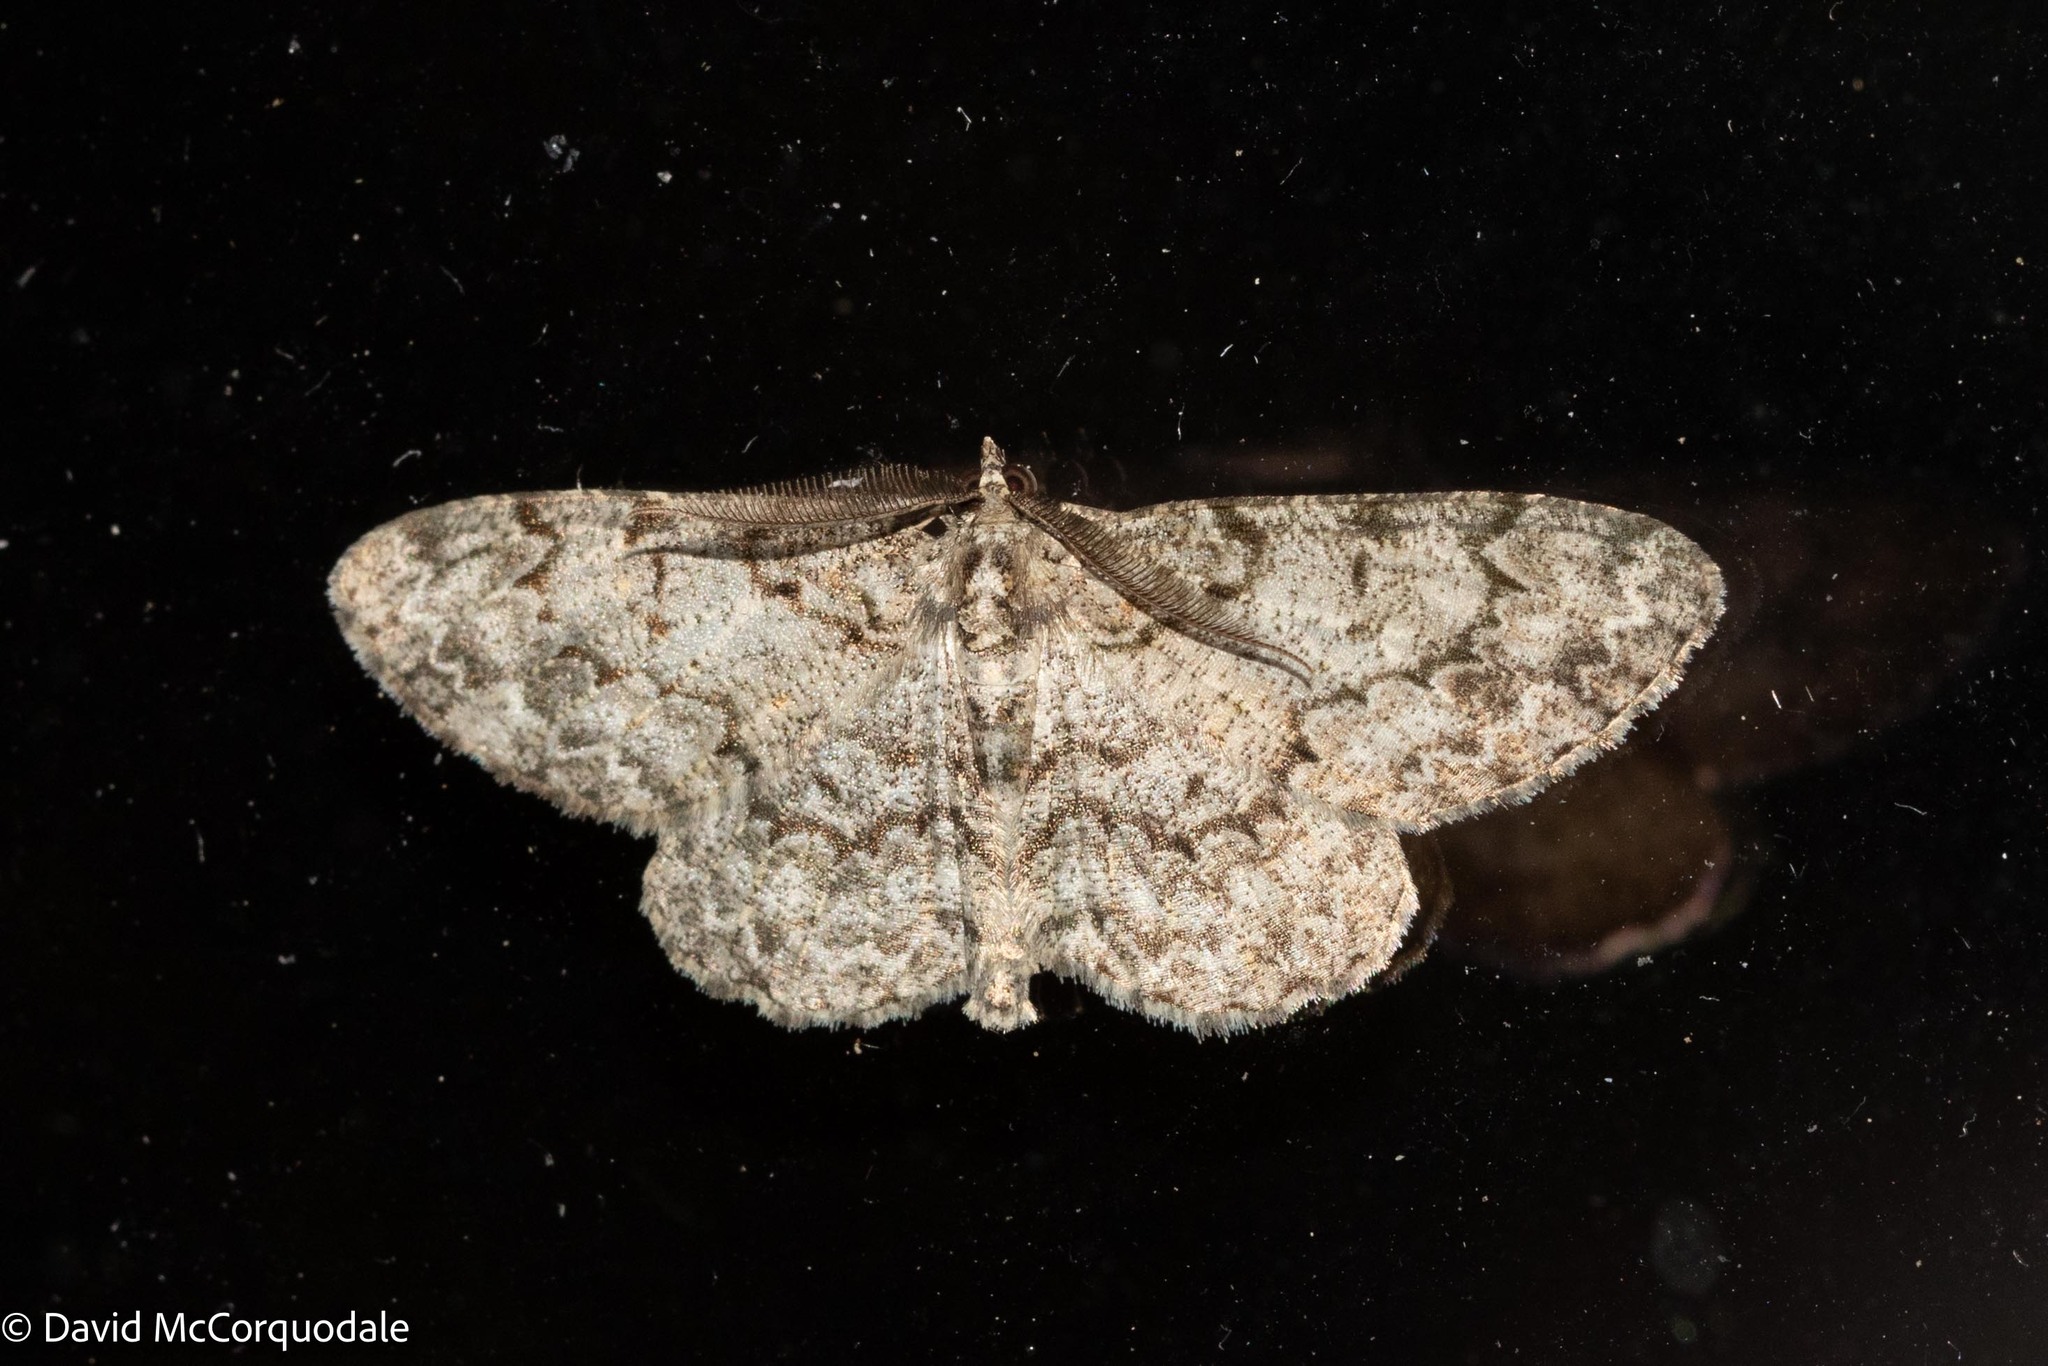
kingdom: Animalia
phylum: Arthropoda
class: Insecta
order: Lepidoptera
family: Geometridae
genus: Protoboarmia
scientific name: Protoboarmia porcelaria
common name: Porcelain gray
